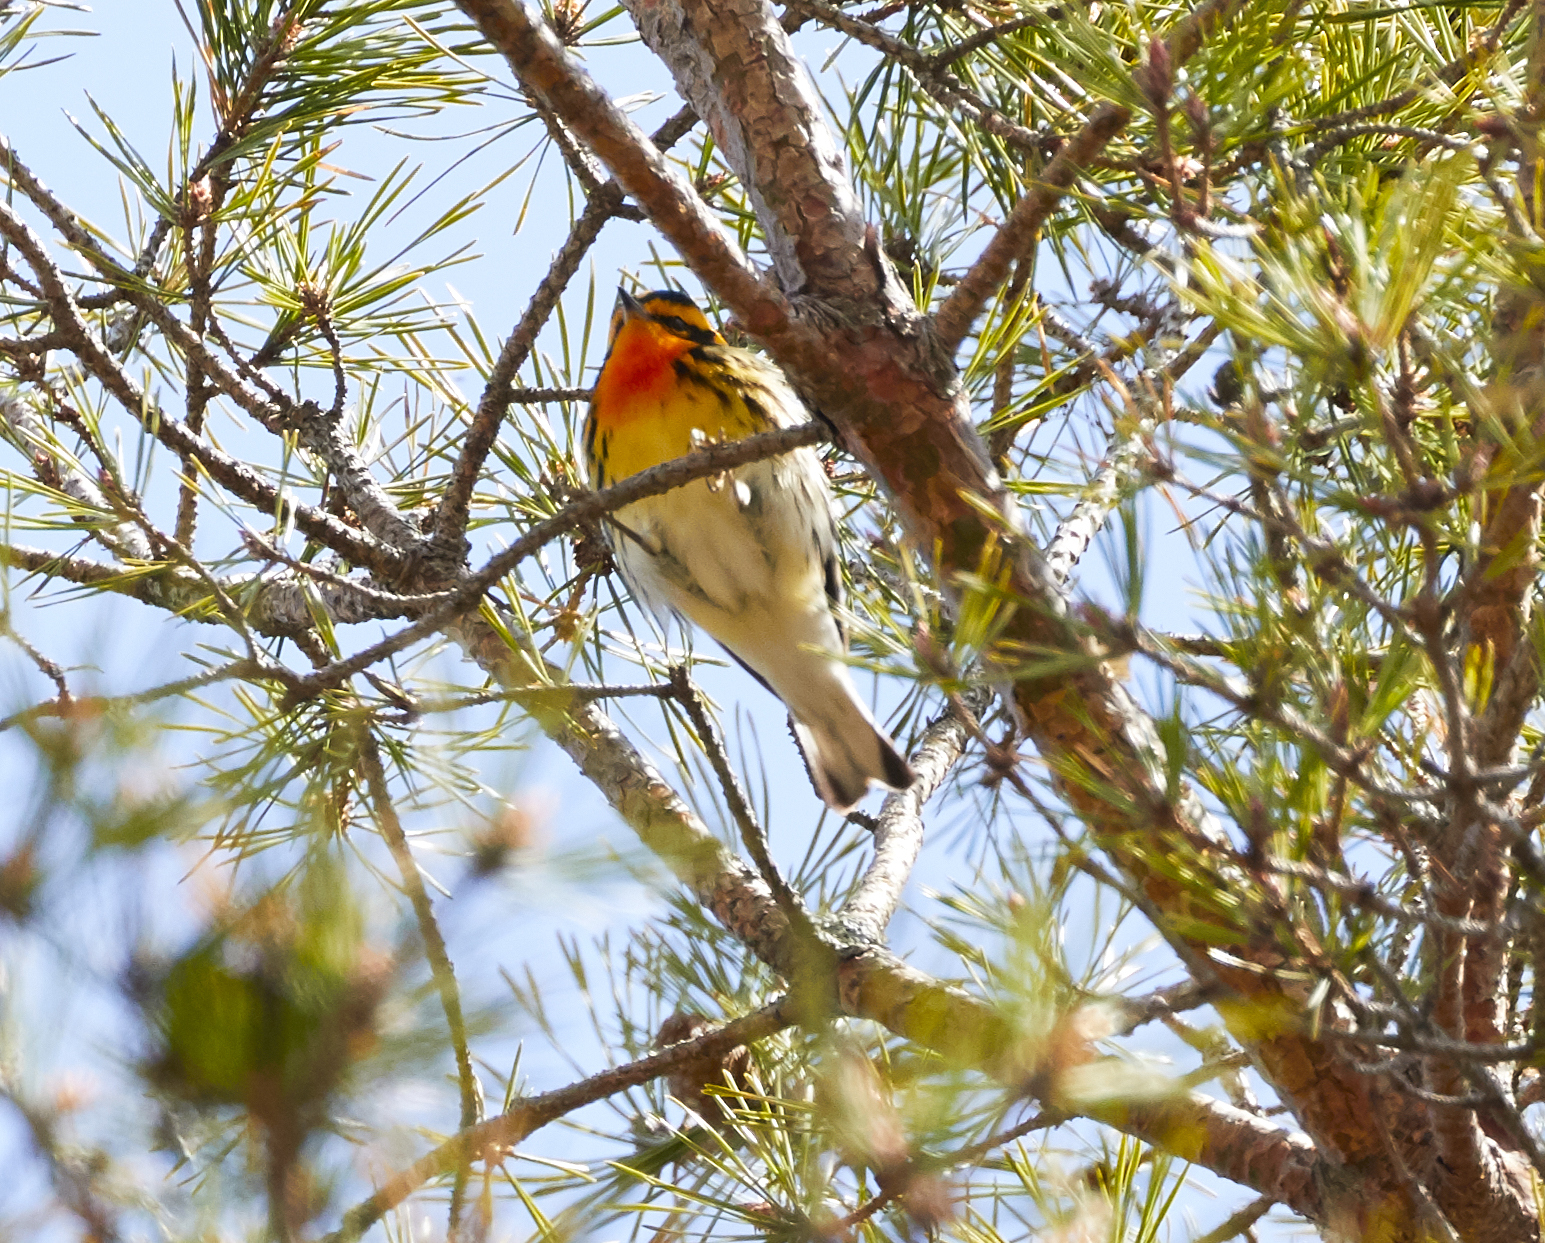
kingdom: Animalia
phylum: Chordata
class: Aves
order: Passeriformes
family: Parulidae
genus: Setophaga
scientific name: Setophaga fusca
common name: Blackburnian warbler
